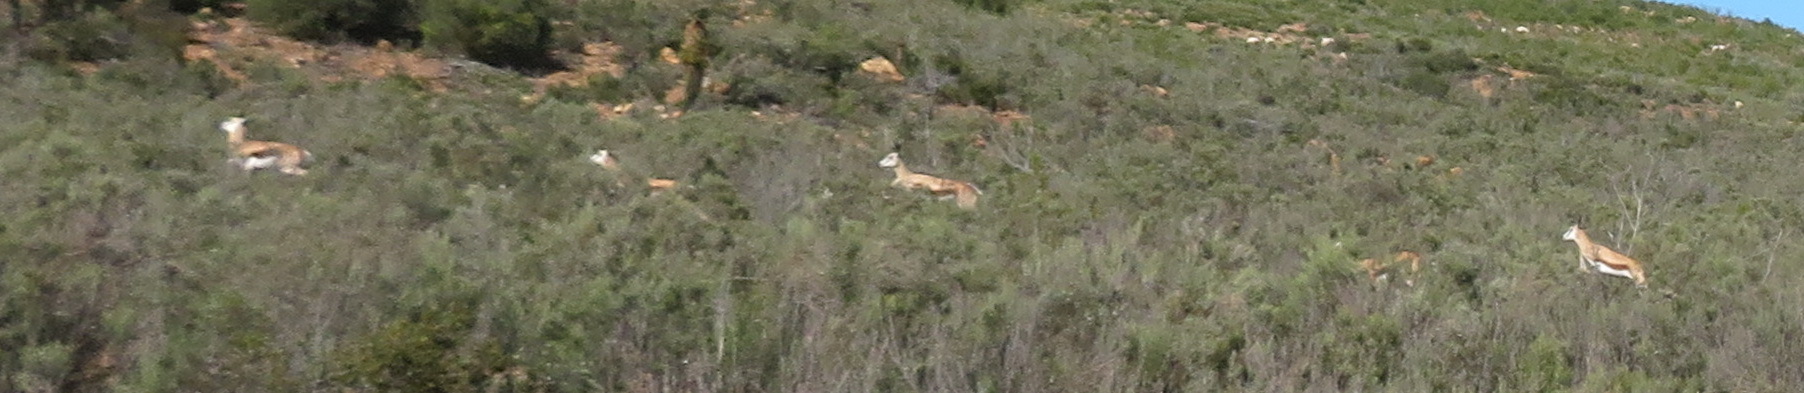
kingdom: Animalia
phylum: Chordata
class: Mammalia
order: Artiodactyla
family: Bovidae
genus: Antidorcas
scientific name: Antidorcas marsupialis
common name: Springbok
